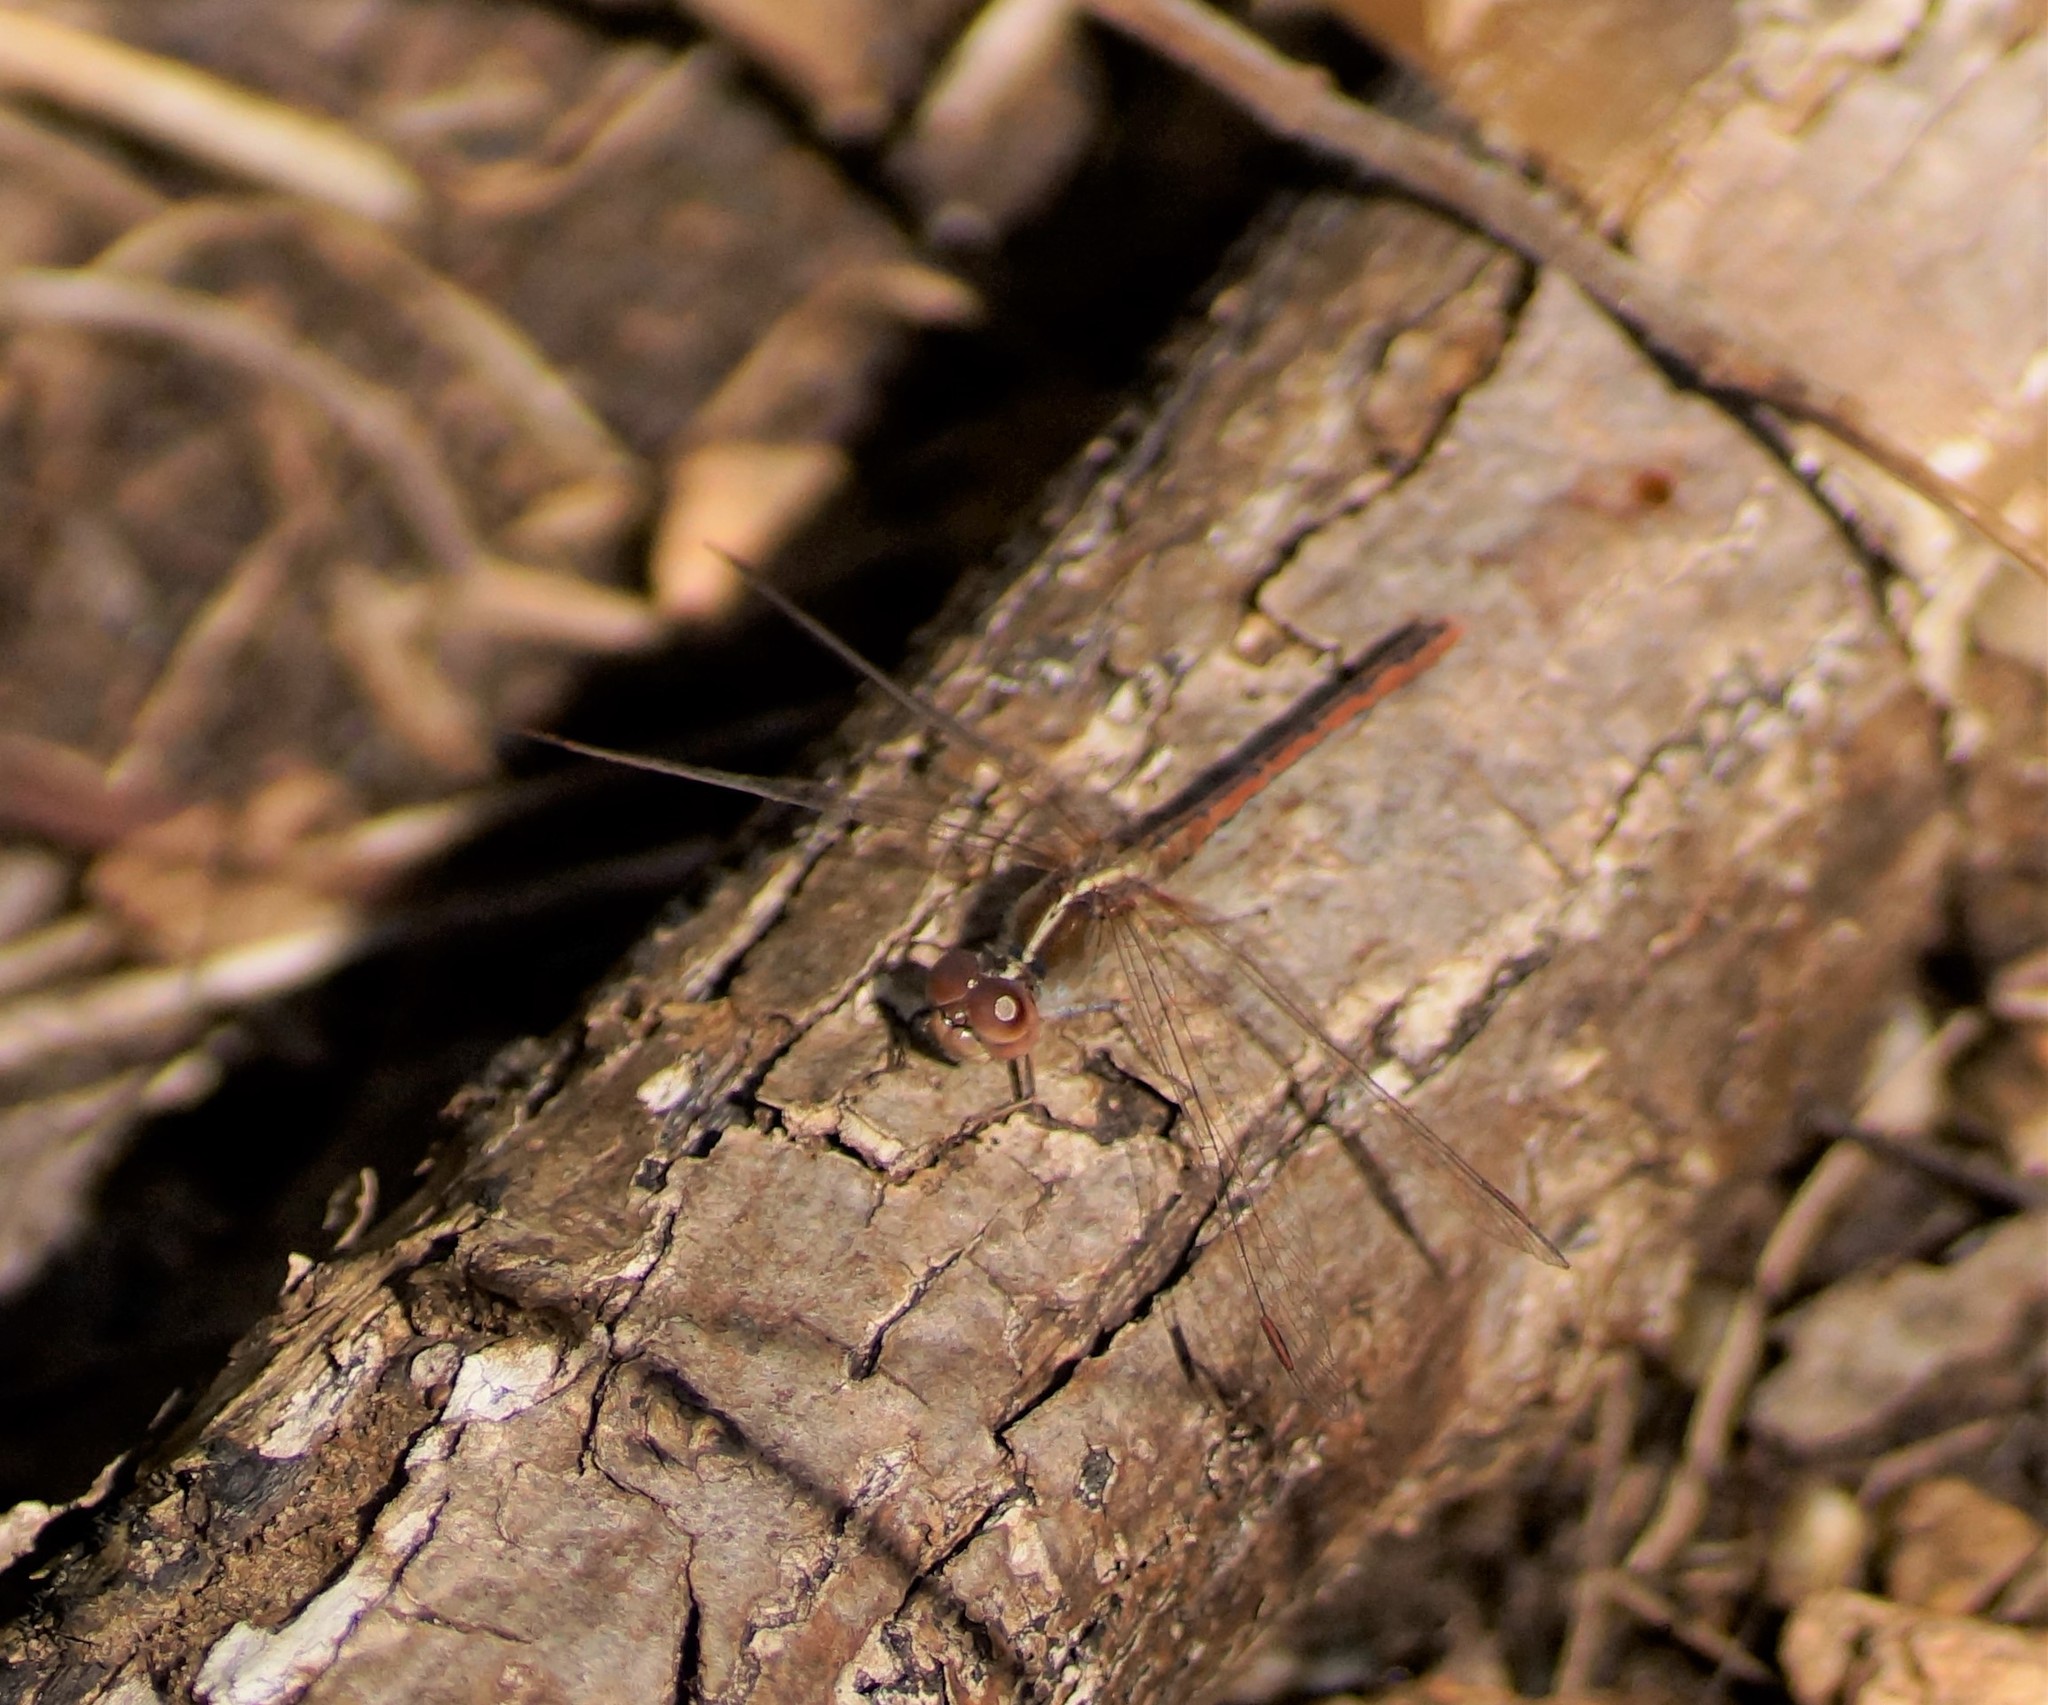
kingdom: Animalia
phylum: Arthropoda
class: Insecta
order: Odonata
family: Libellulidae
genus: Diplacodes
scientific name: Diplacodes bipunctata
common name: Red percher dragonfly
